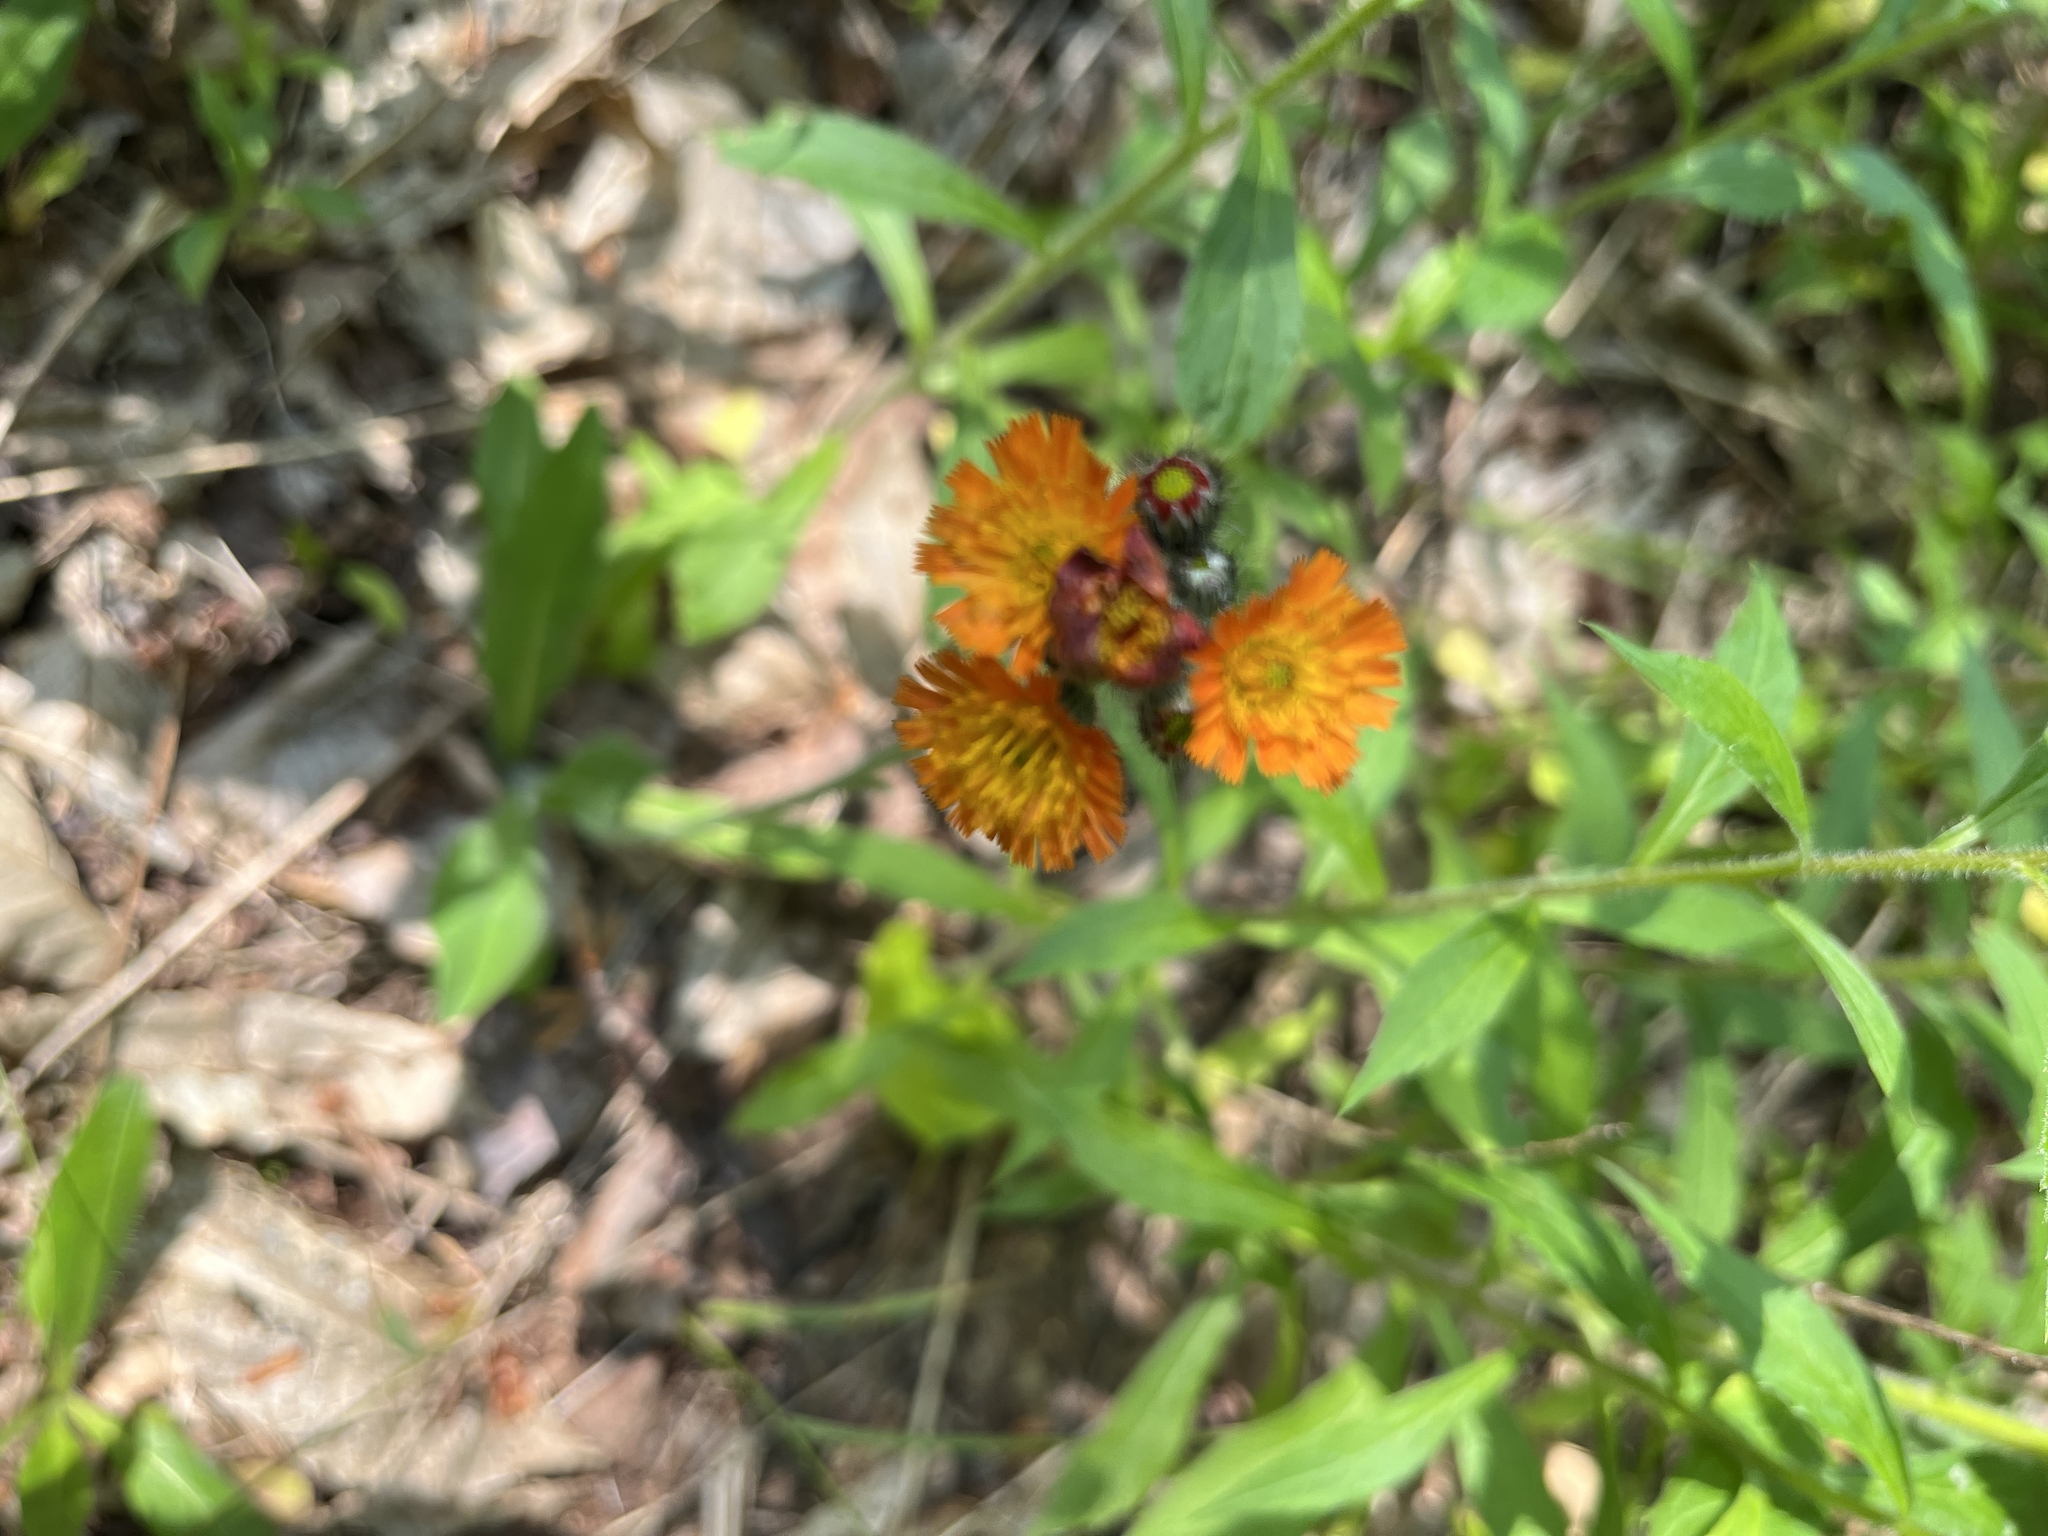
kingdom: Plantae
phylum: Tracheophyta
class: Magnoliopsida
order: Asterales
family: Asteraceae
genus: Pilosella
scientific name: Pilosella aurantiaca
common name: Fox-and-cubs
